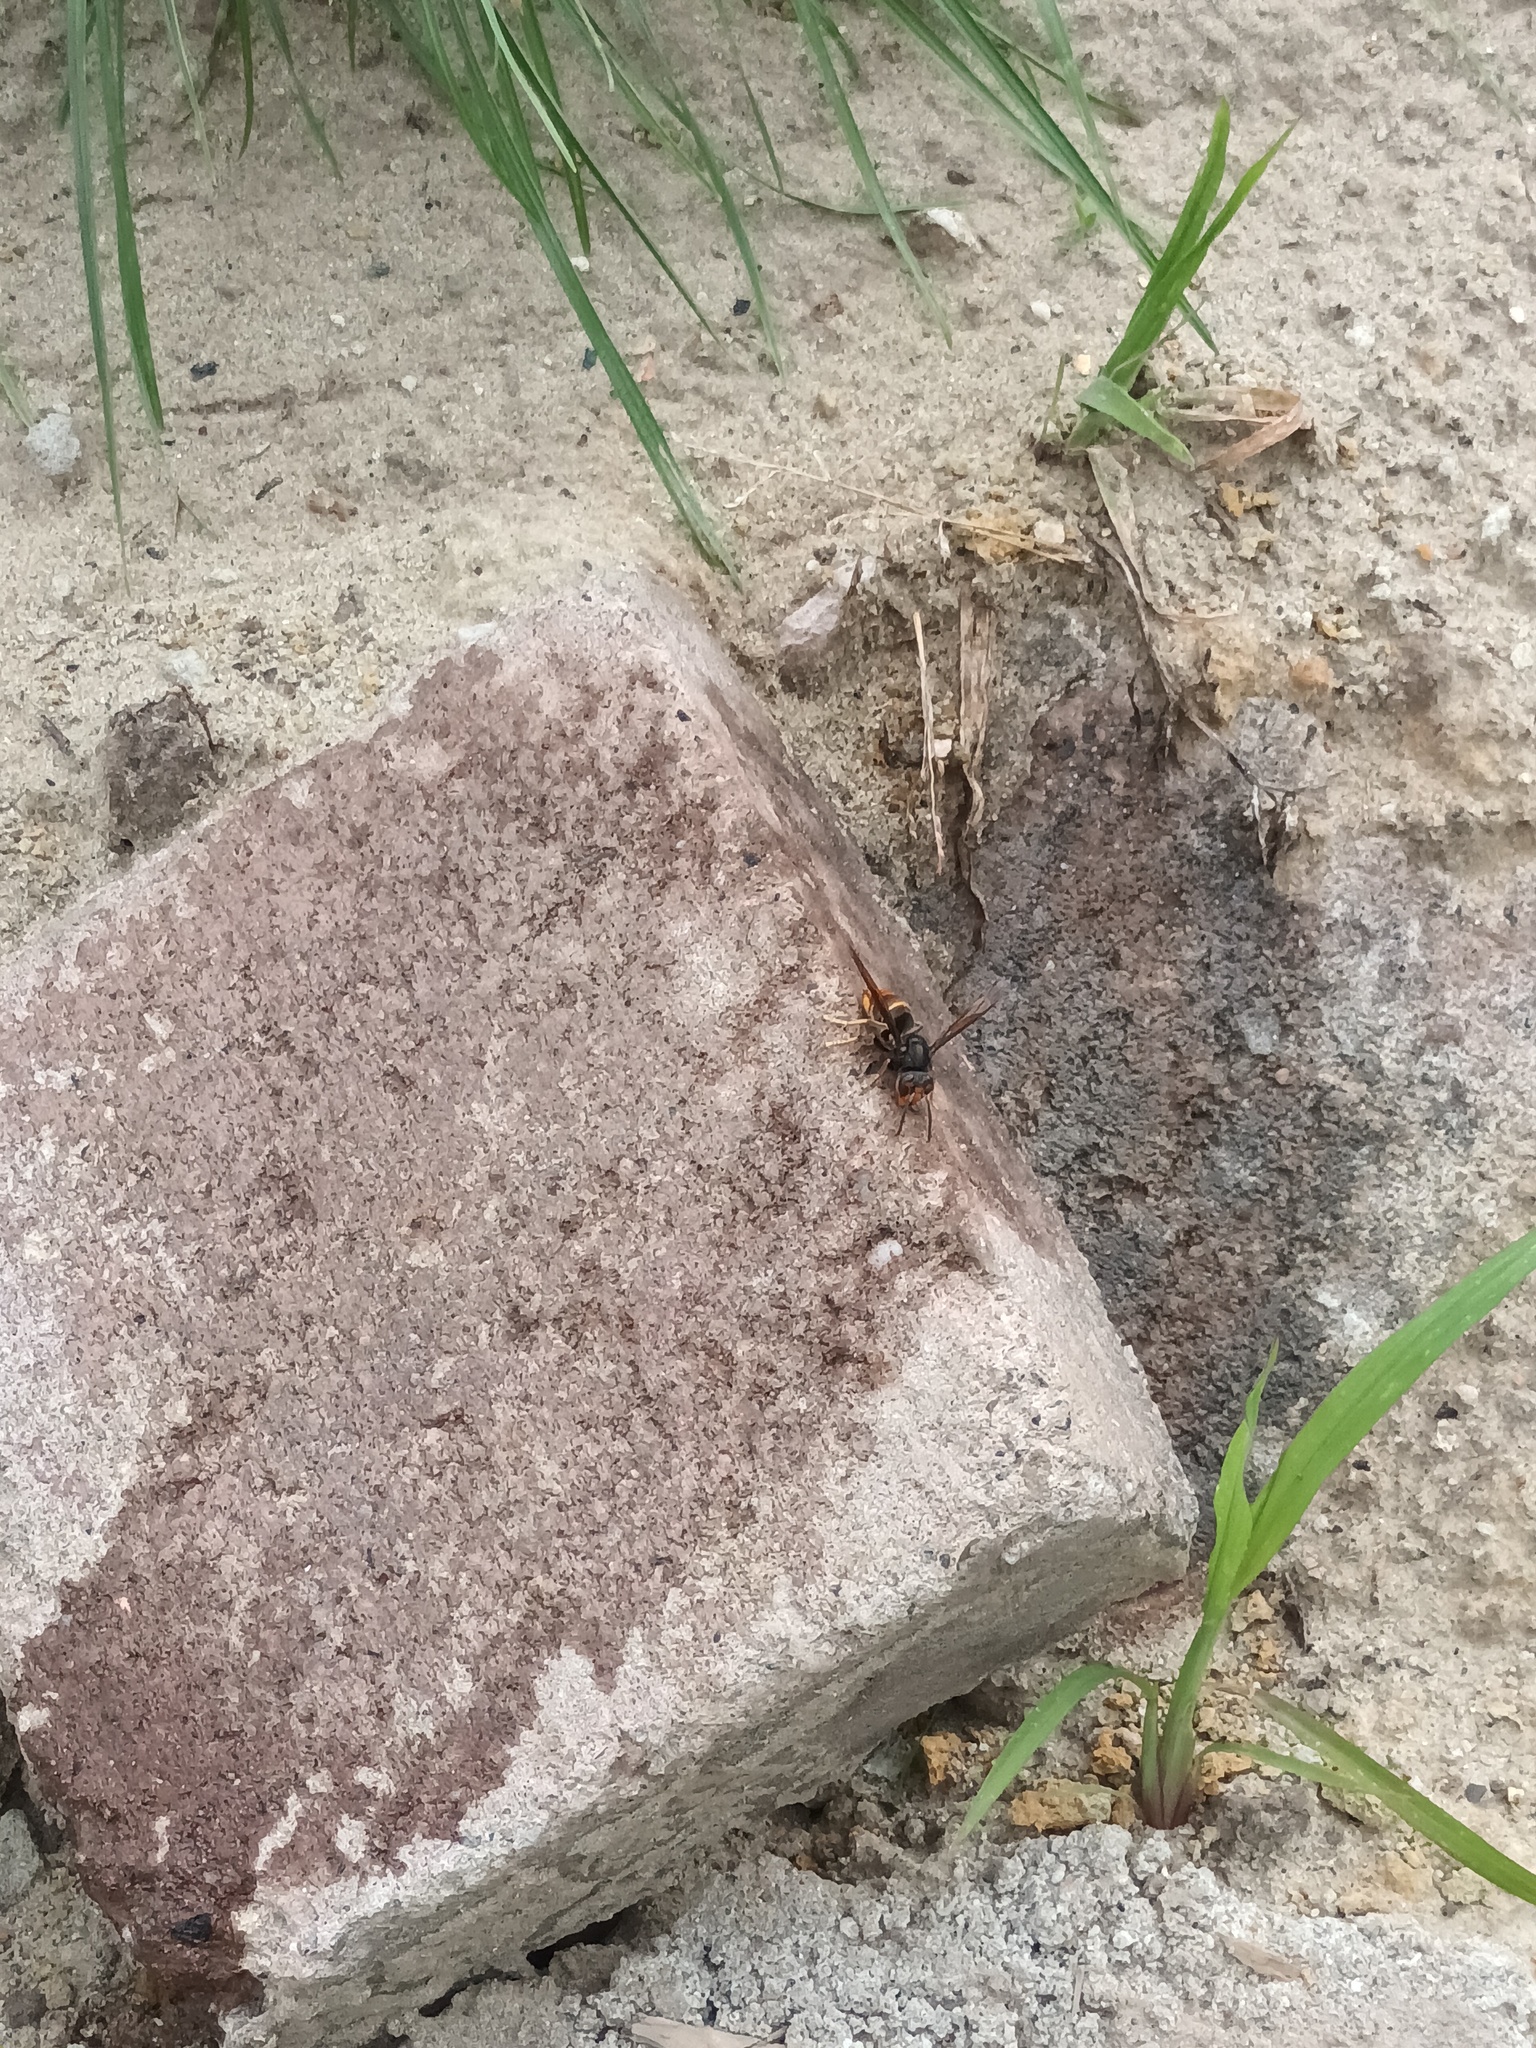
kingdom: Animalia
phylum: Arthropoda
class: Insecta
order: Hymenoptera
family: Vespidae
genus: Vespa
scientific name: Vespa velutina
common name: Asian hornet
